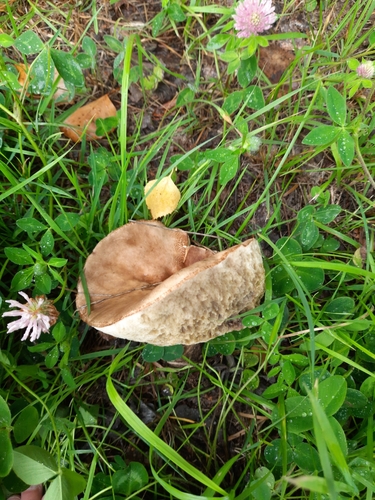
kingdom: Fungi
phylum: Basidiomycota
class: Agaricomycetes
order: Boletales
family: Boletaceae
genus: Leccinum
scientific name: Leccinum scabrum
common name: Blushing bolete
